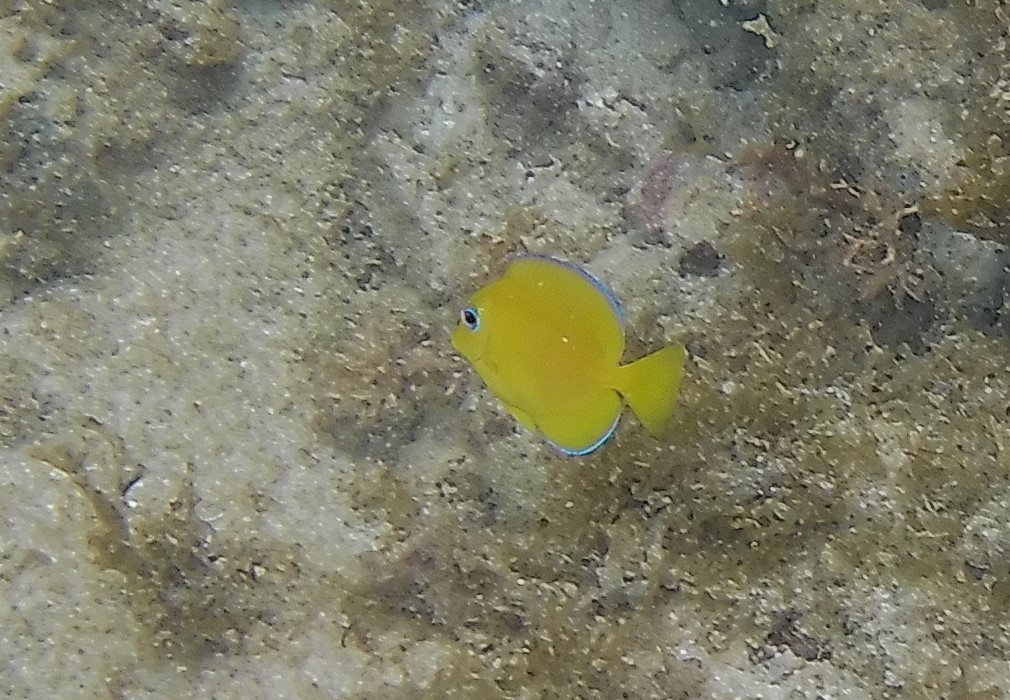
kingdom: Animalia
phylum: Chordata
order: Perciformes
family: Acanthuridae
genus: Acanthurus
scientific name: Acanthurus coeruleus
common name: Blue tang
